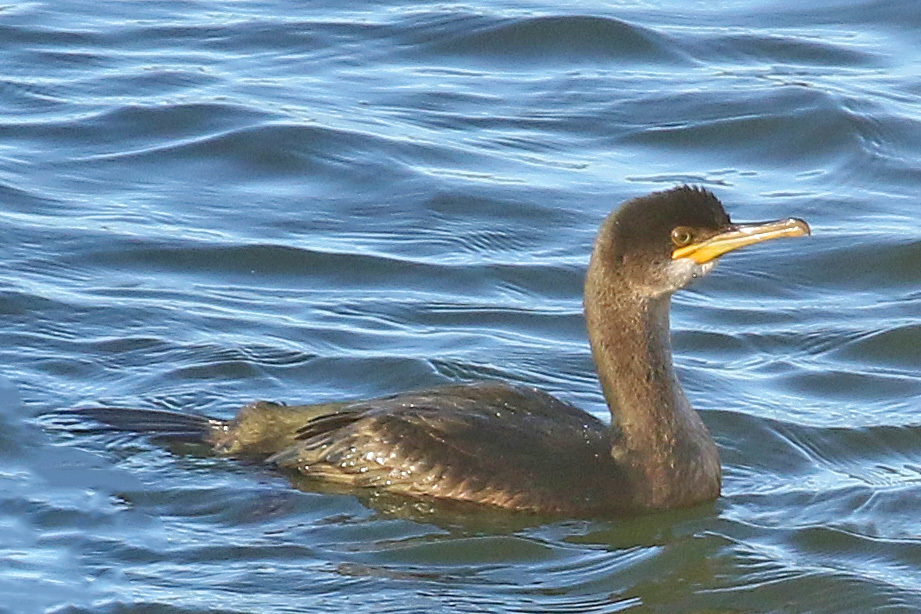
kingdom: Animalia
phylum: Chordata
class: Aves
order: Suliformes
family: Phalacrocoracidae
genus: Phalacrocorax
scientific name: Phalacrocorax aristotelis
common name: European shag
